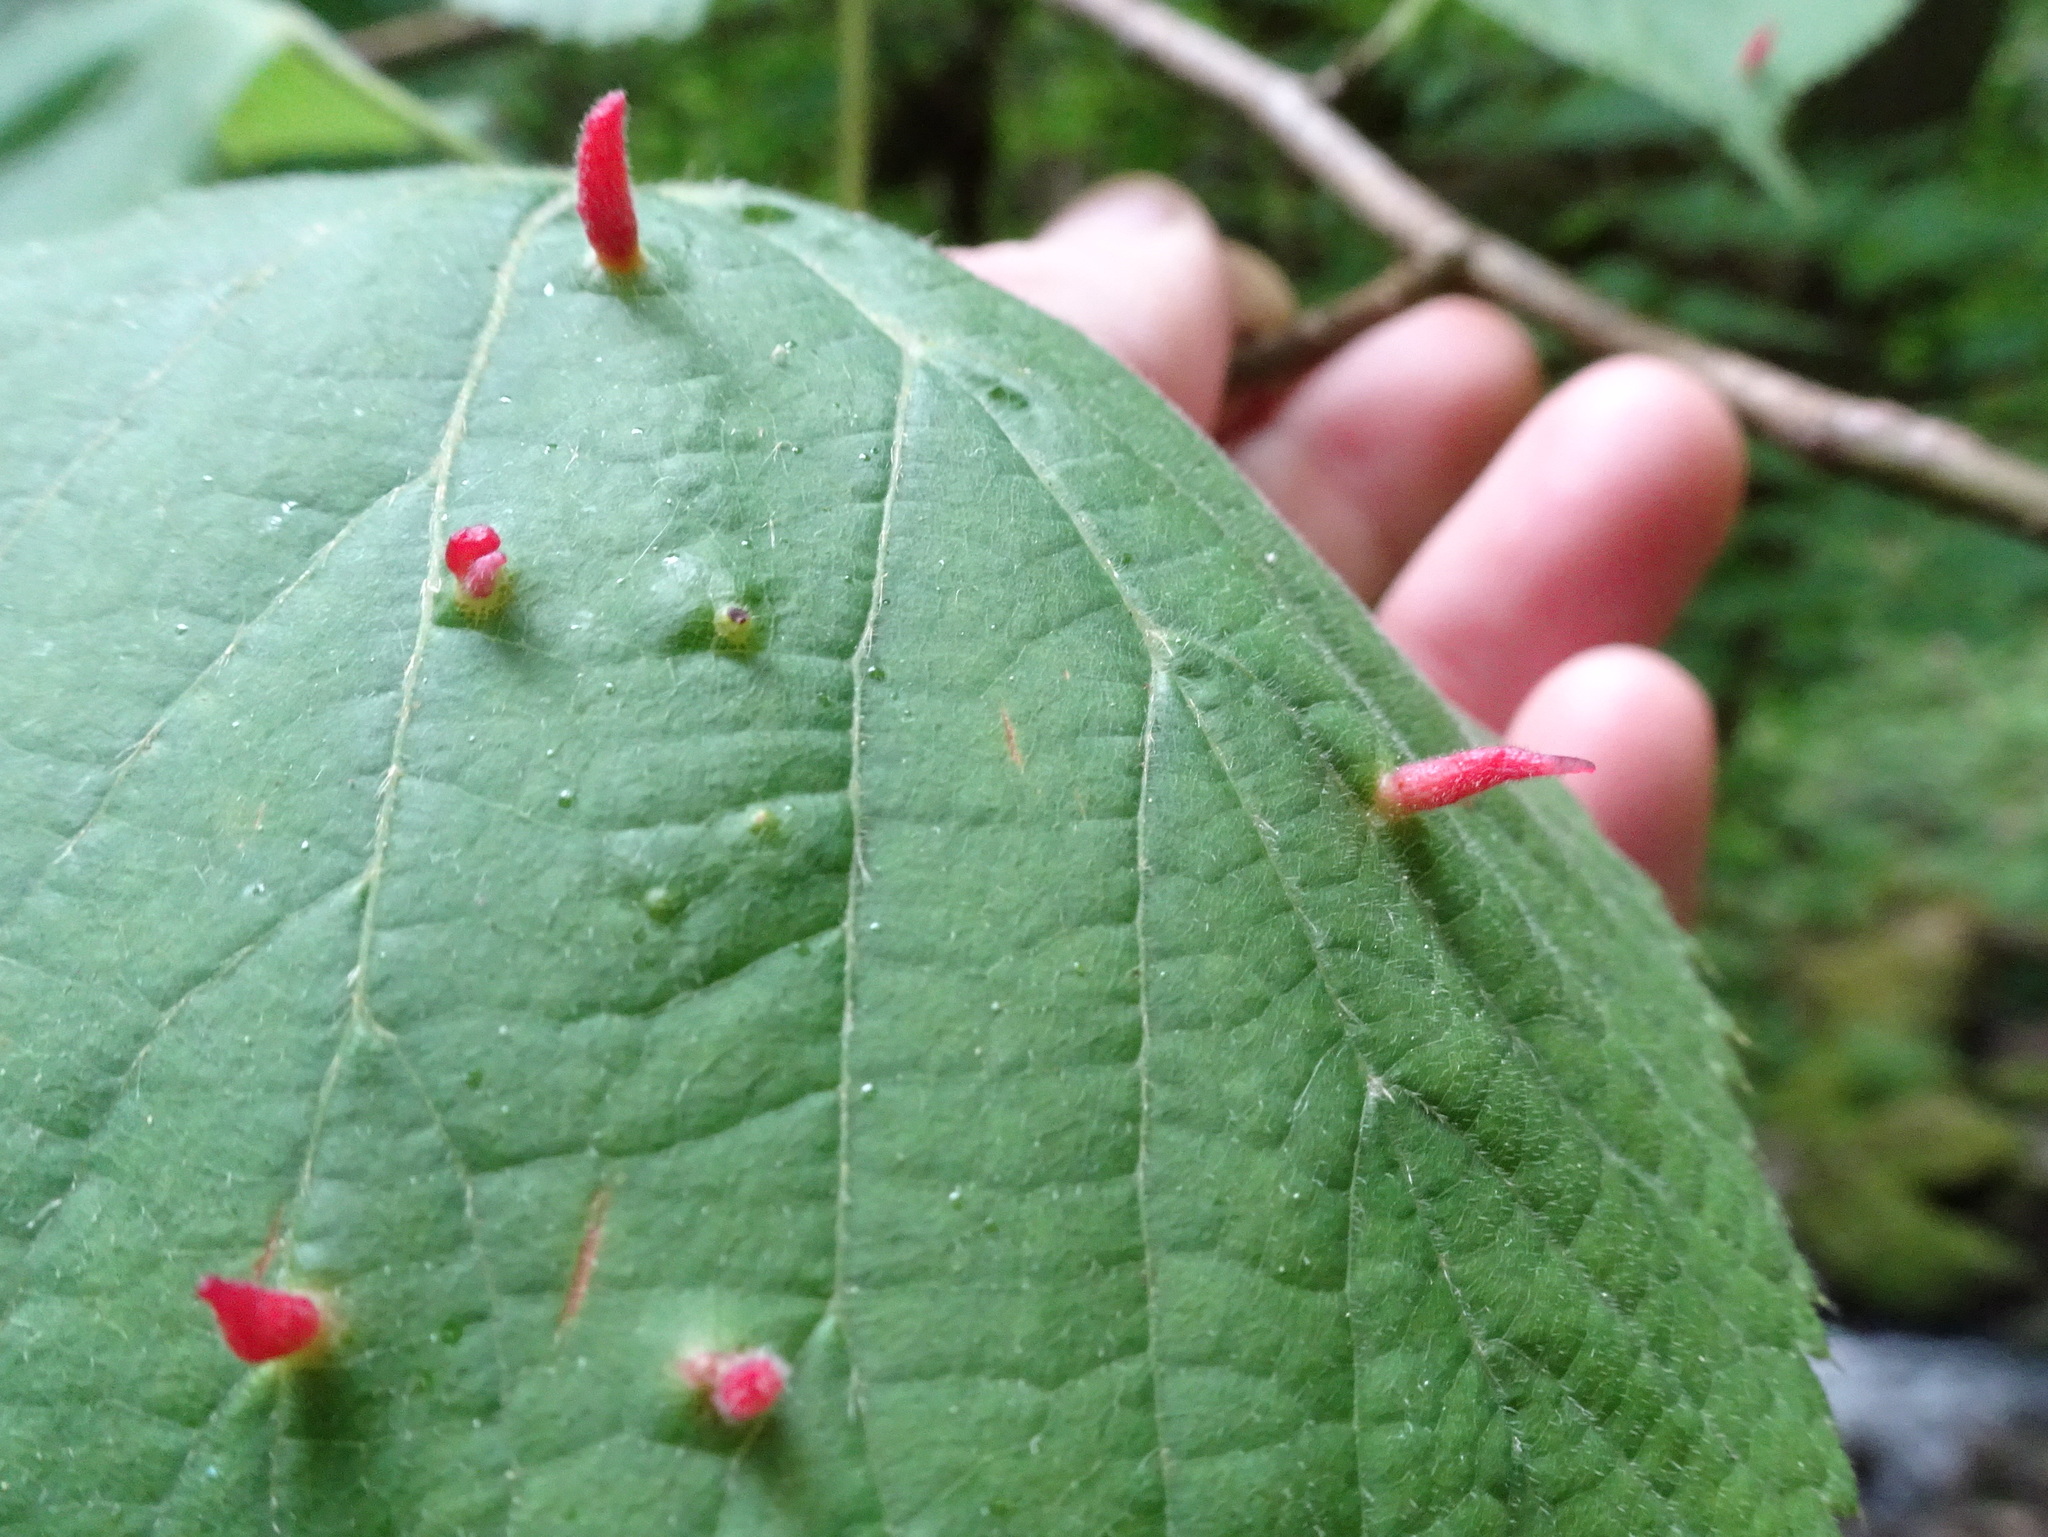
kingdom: Animalia
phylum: Arthropoda
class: Arachnida
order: Trombidiformes
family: Eriophyidae
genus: Eriophyes
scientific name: Eriophyes tiliae
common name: Red nail gall mite
